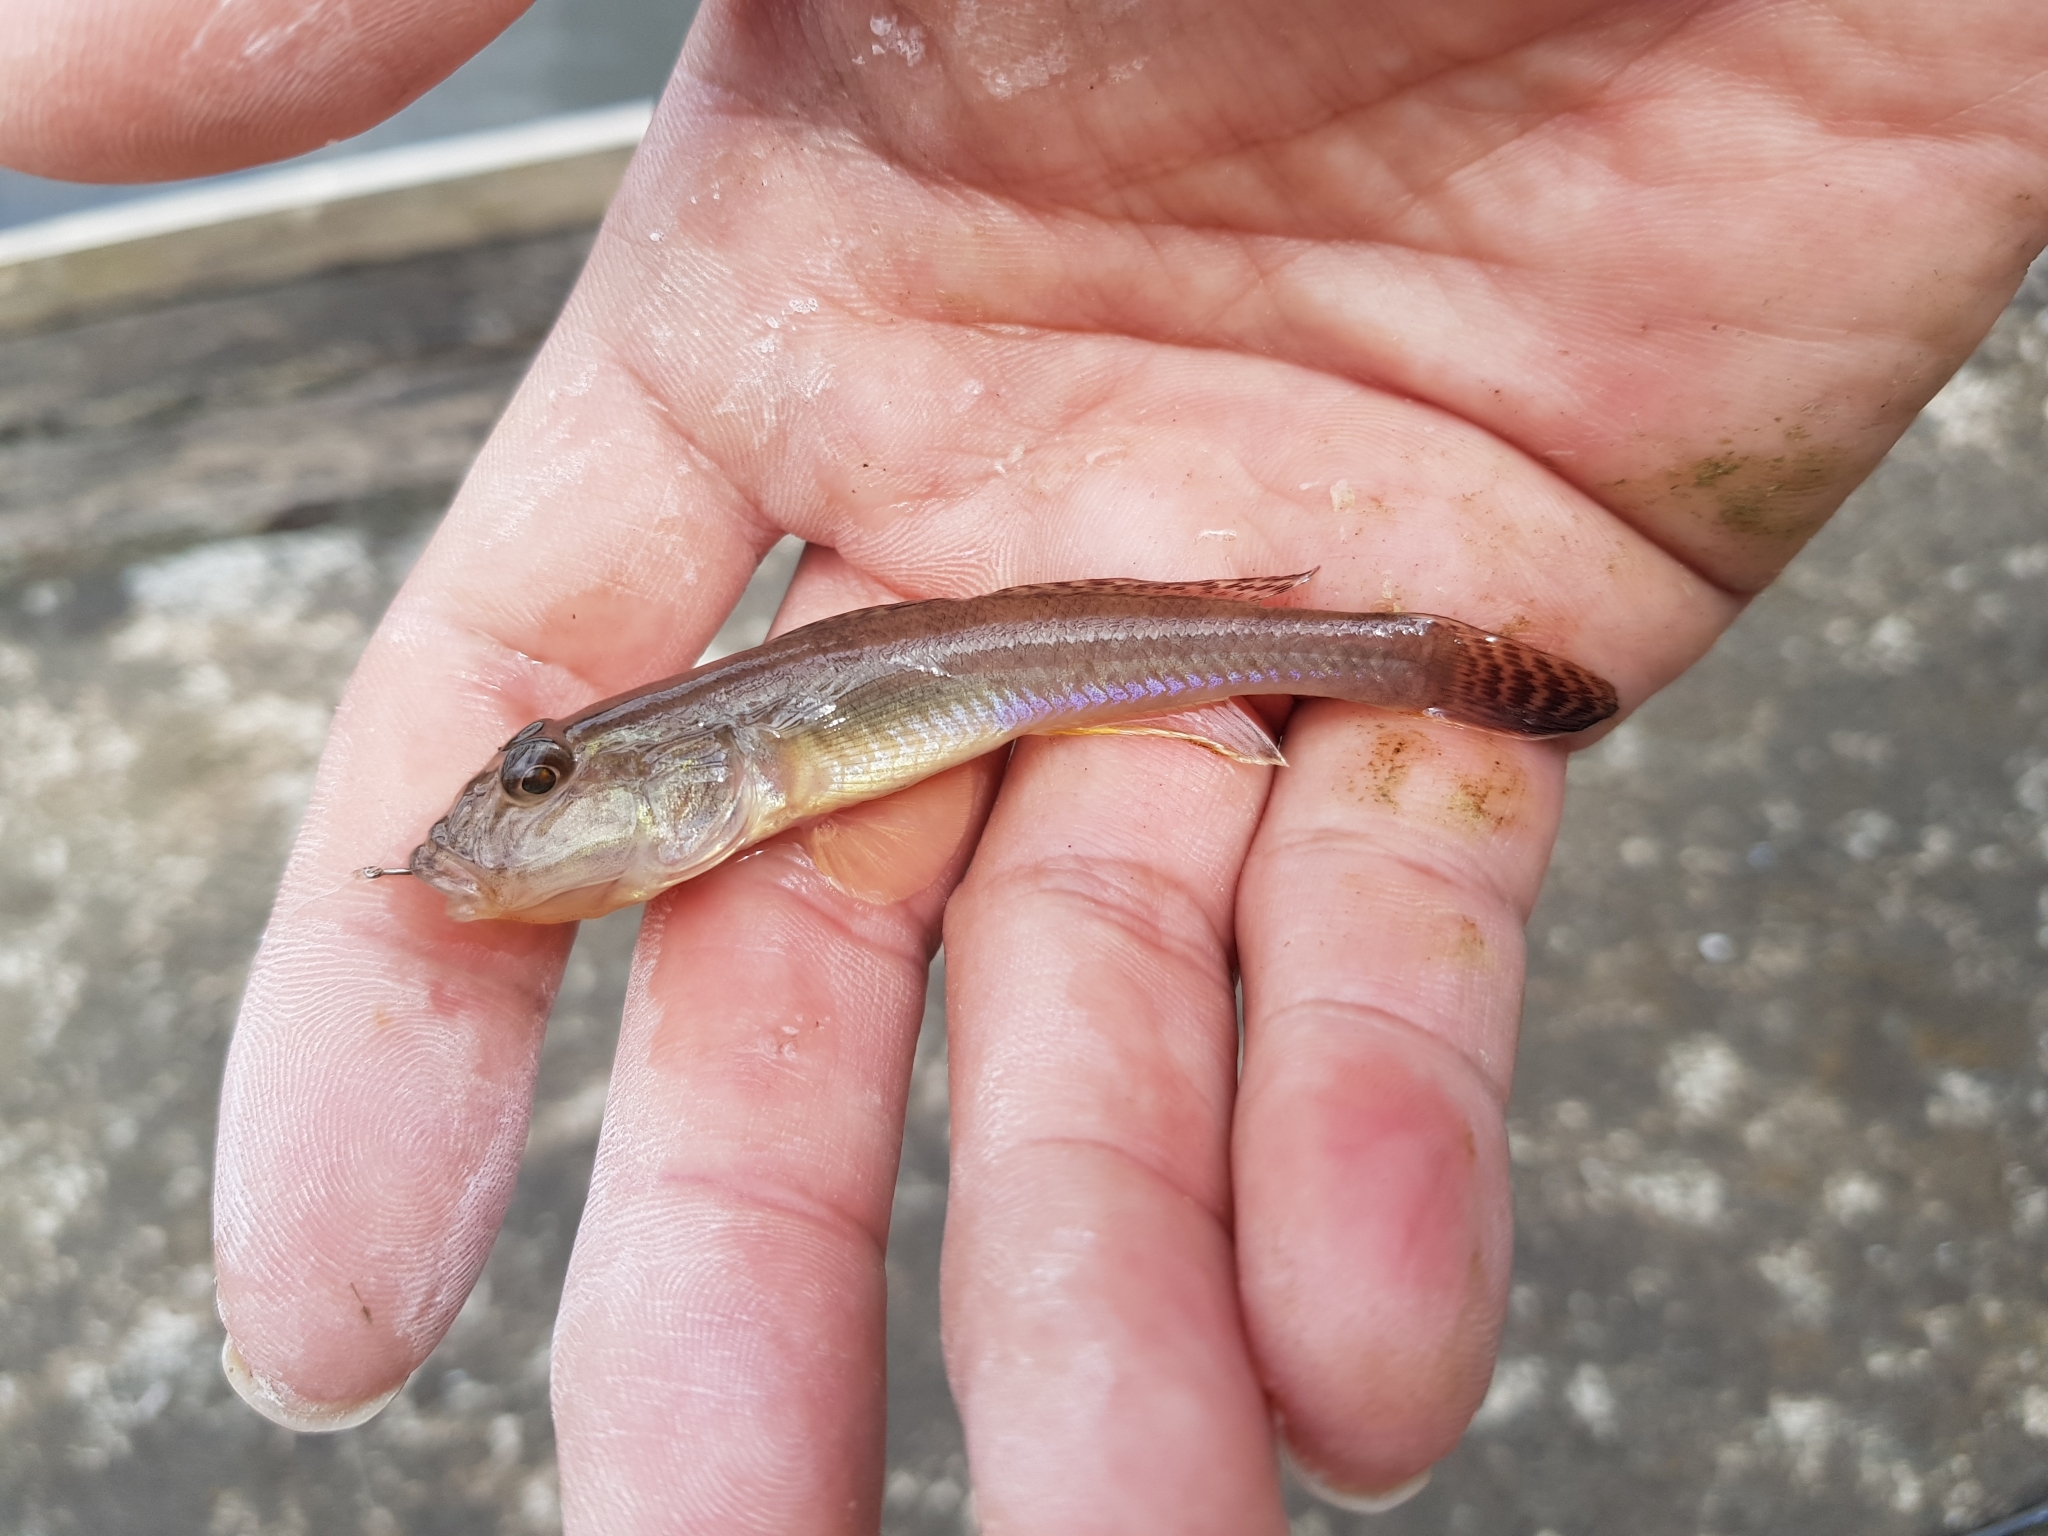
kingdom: Animalia
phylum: Chordata
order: Perciformes
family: Gobiidae
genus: Acanthogobius
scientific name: Acanthogobius flavimanus
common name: Yellowfin goby
